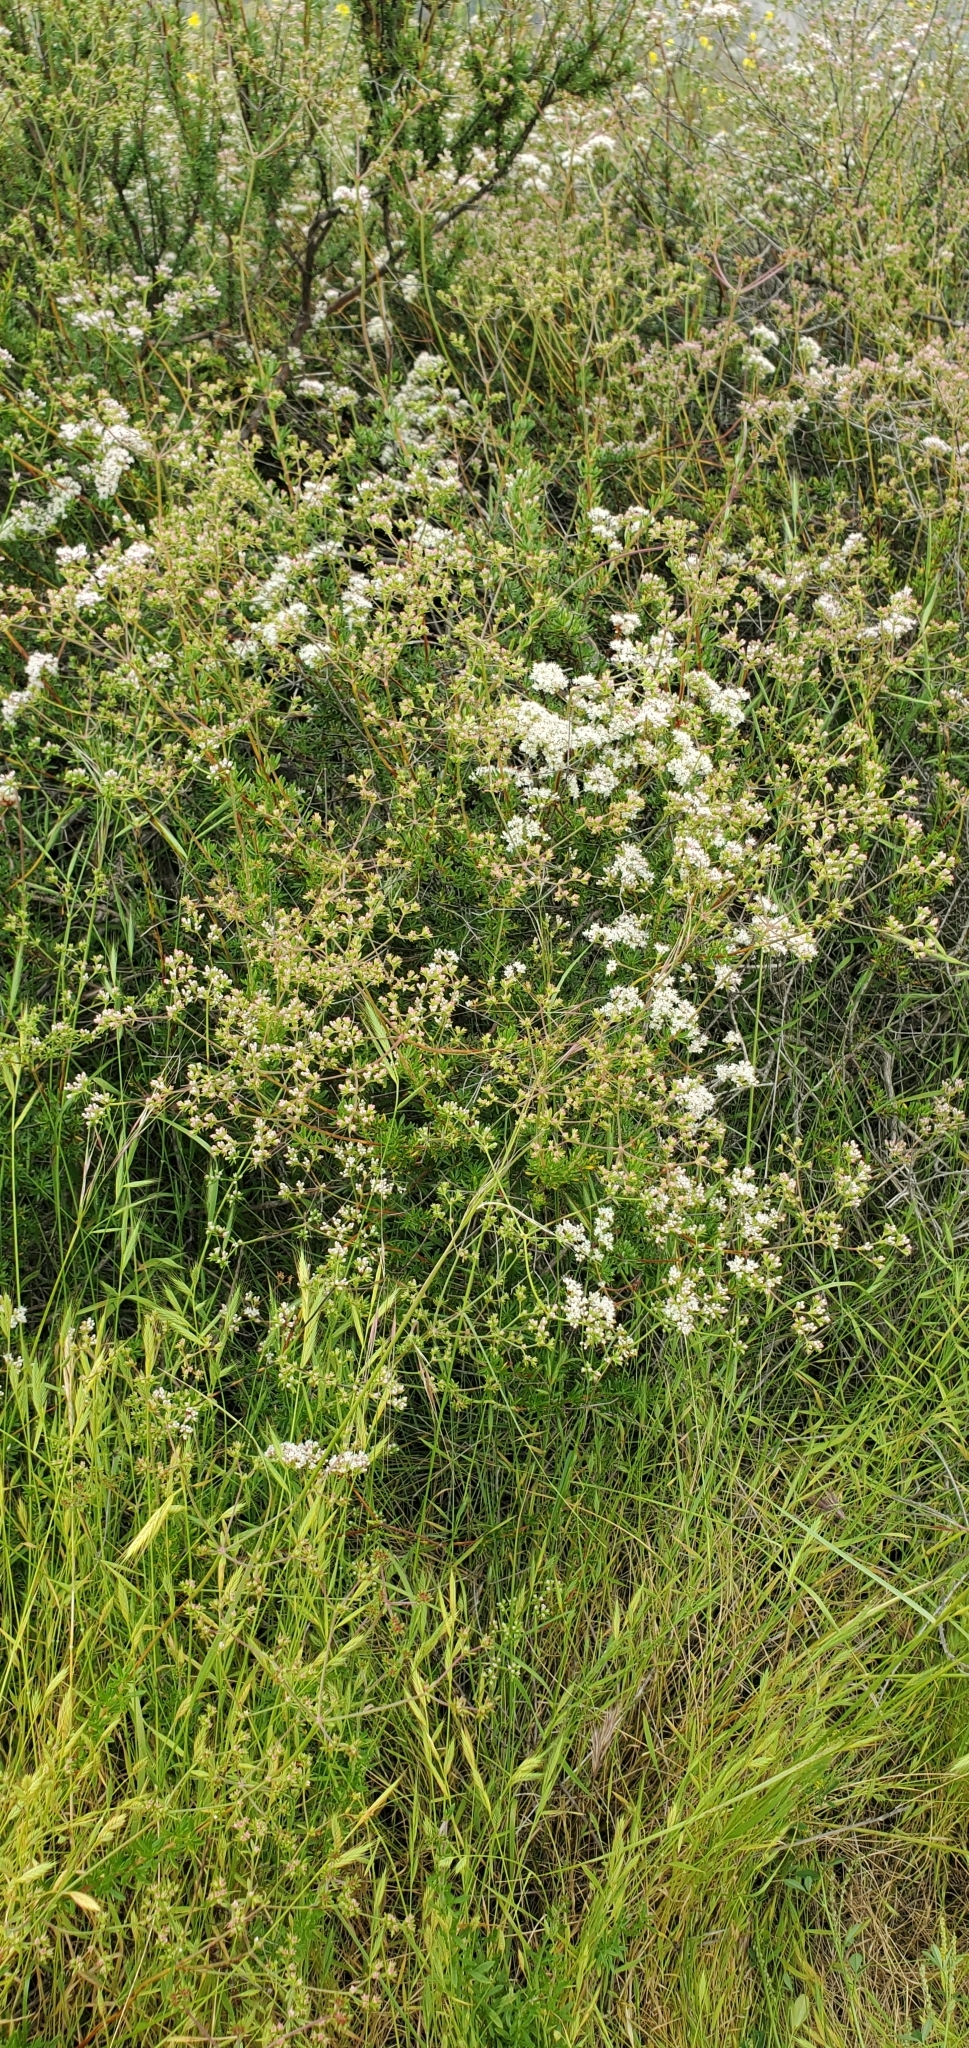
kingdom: Plantae
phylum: Tracheophyta
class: Magnoliopsida
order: Caryophyllales
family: Polygonaceae
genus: Eriogonum
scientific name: Eriogonum fasciculatum
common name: California wild buckwheat
